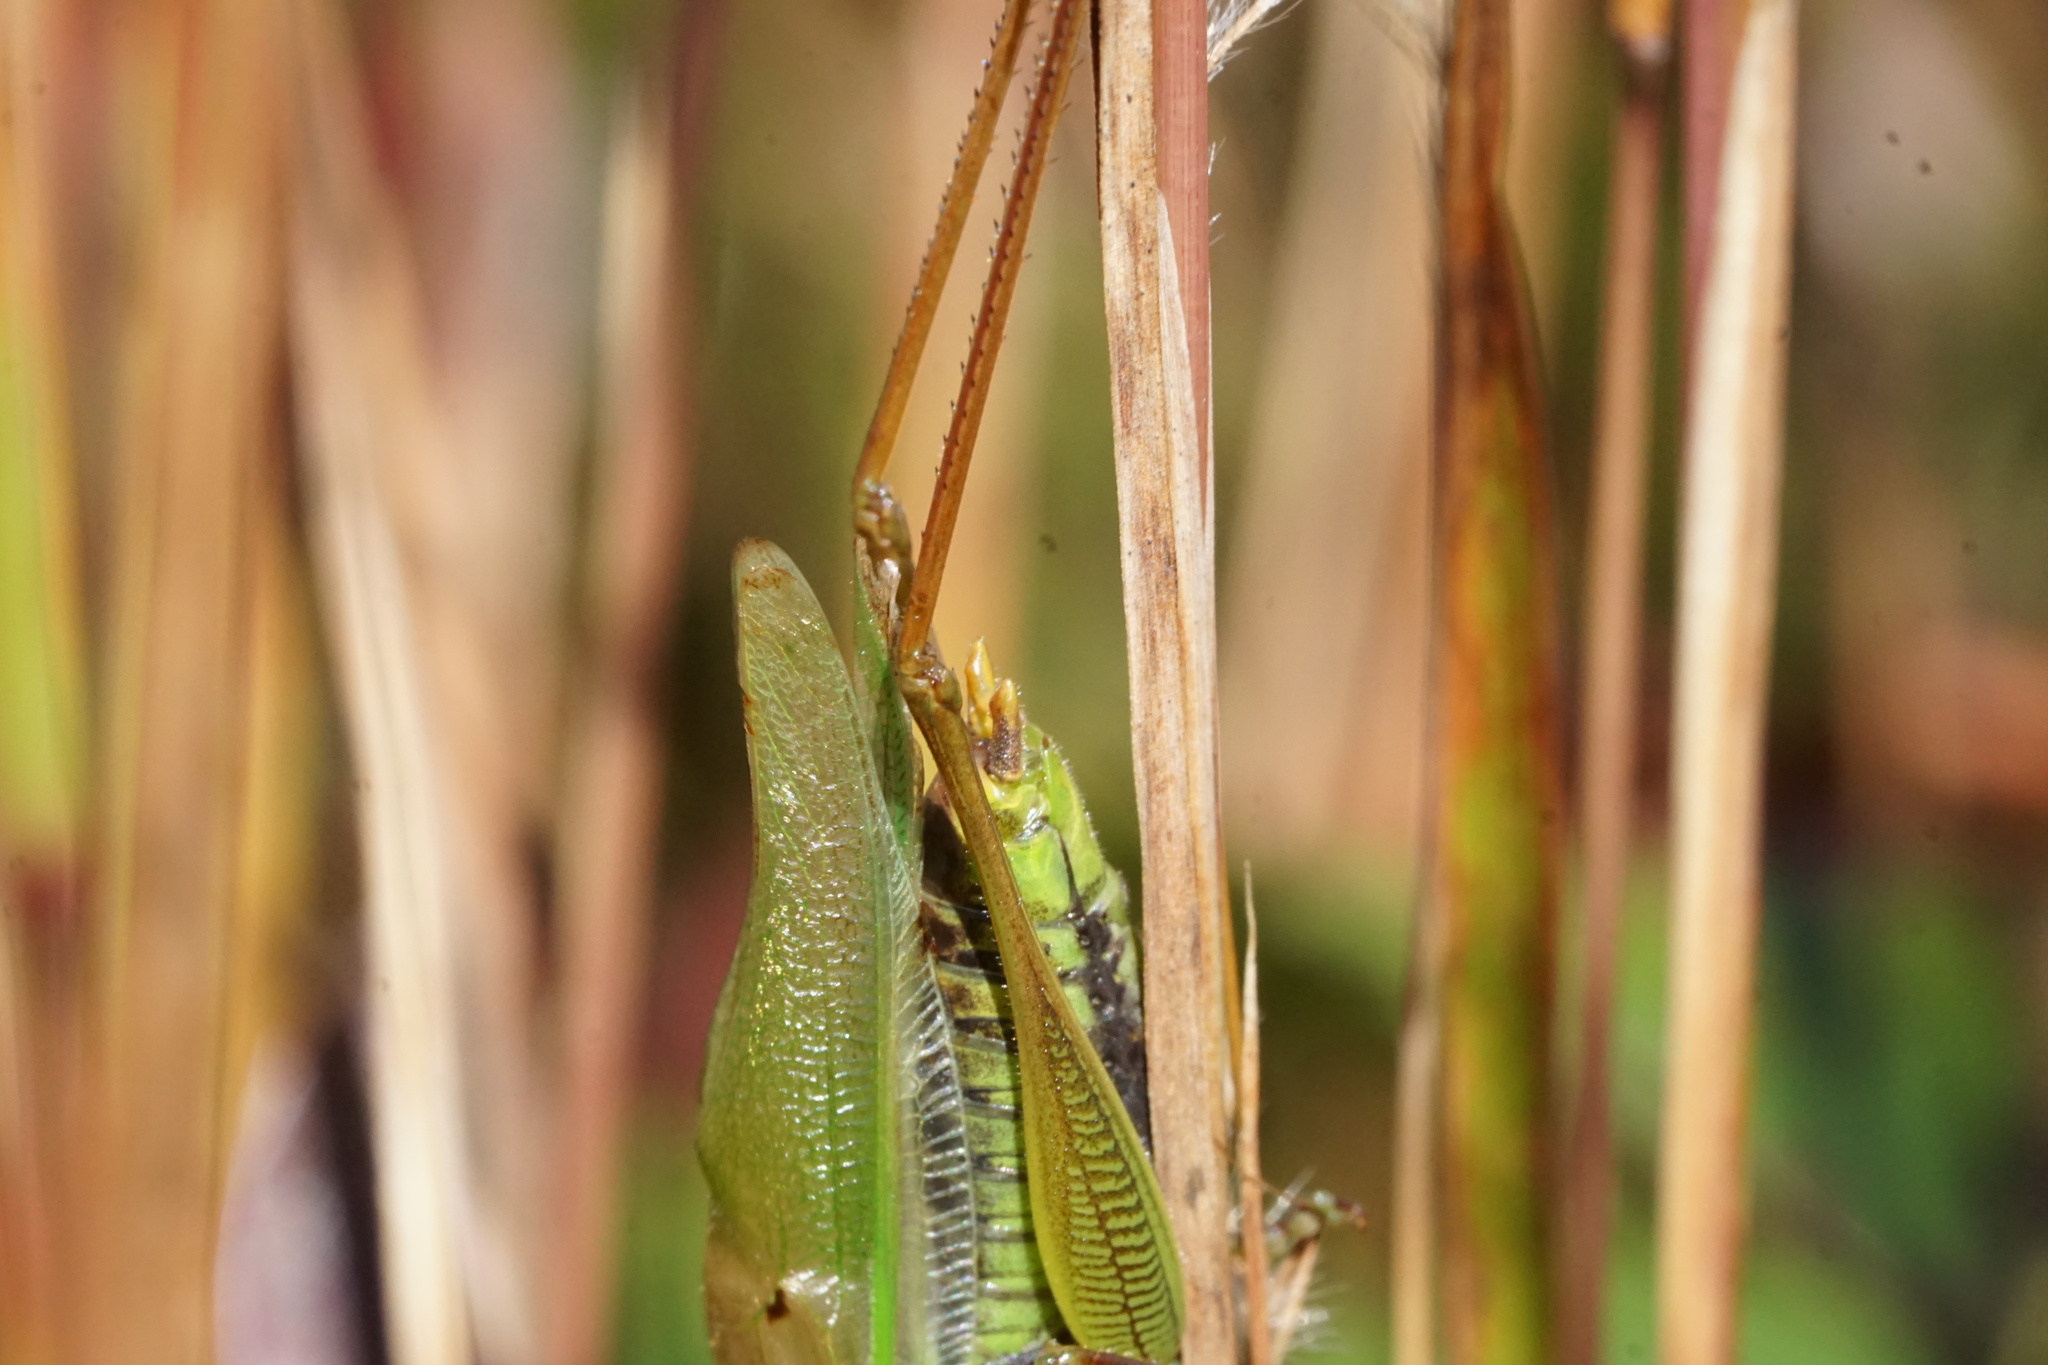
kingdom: Animalia
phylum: Arthropoda
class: Insecta
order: Orthoptera
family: Tettigoniidae
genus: Orchelimum
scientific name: Orchelimum vulgare
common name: Common meadow katydid
